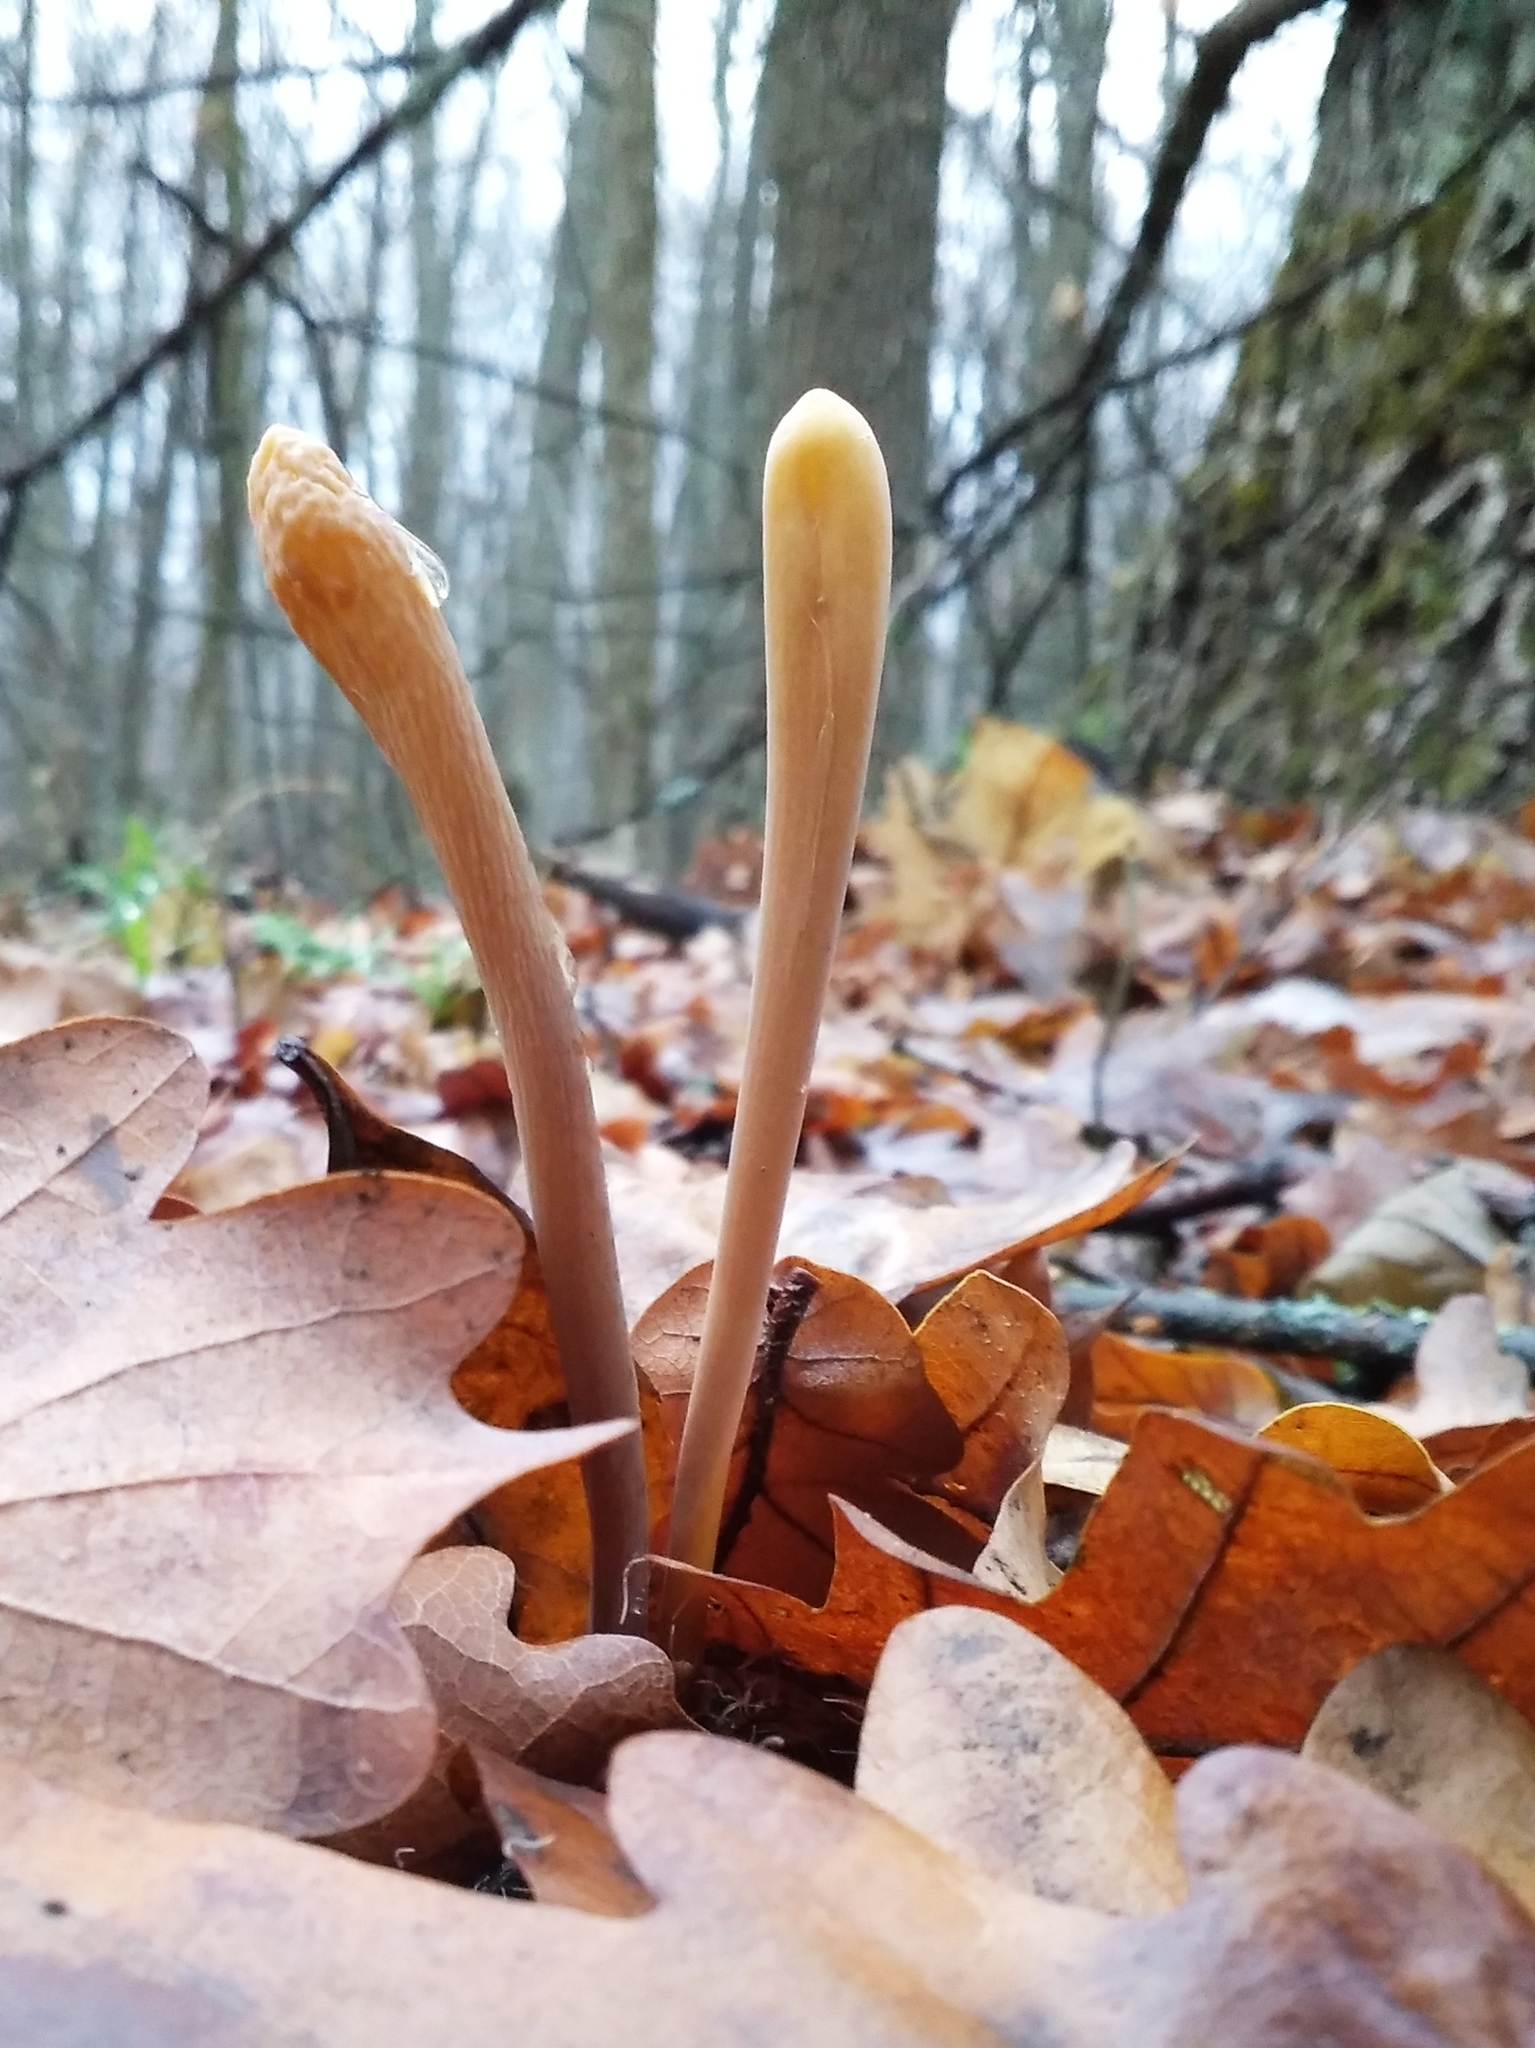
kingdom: Fungi
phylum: Basidiomycota
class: Agaricomycetes
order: Agaricales
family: Typhulaceae
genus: Typhula
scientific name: Typhula fistulosa
